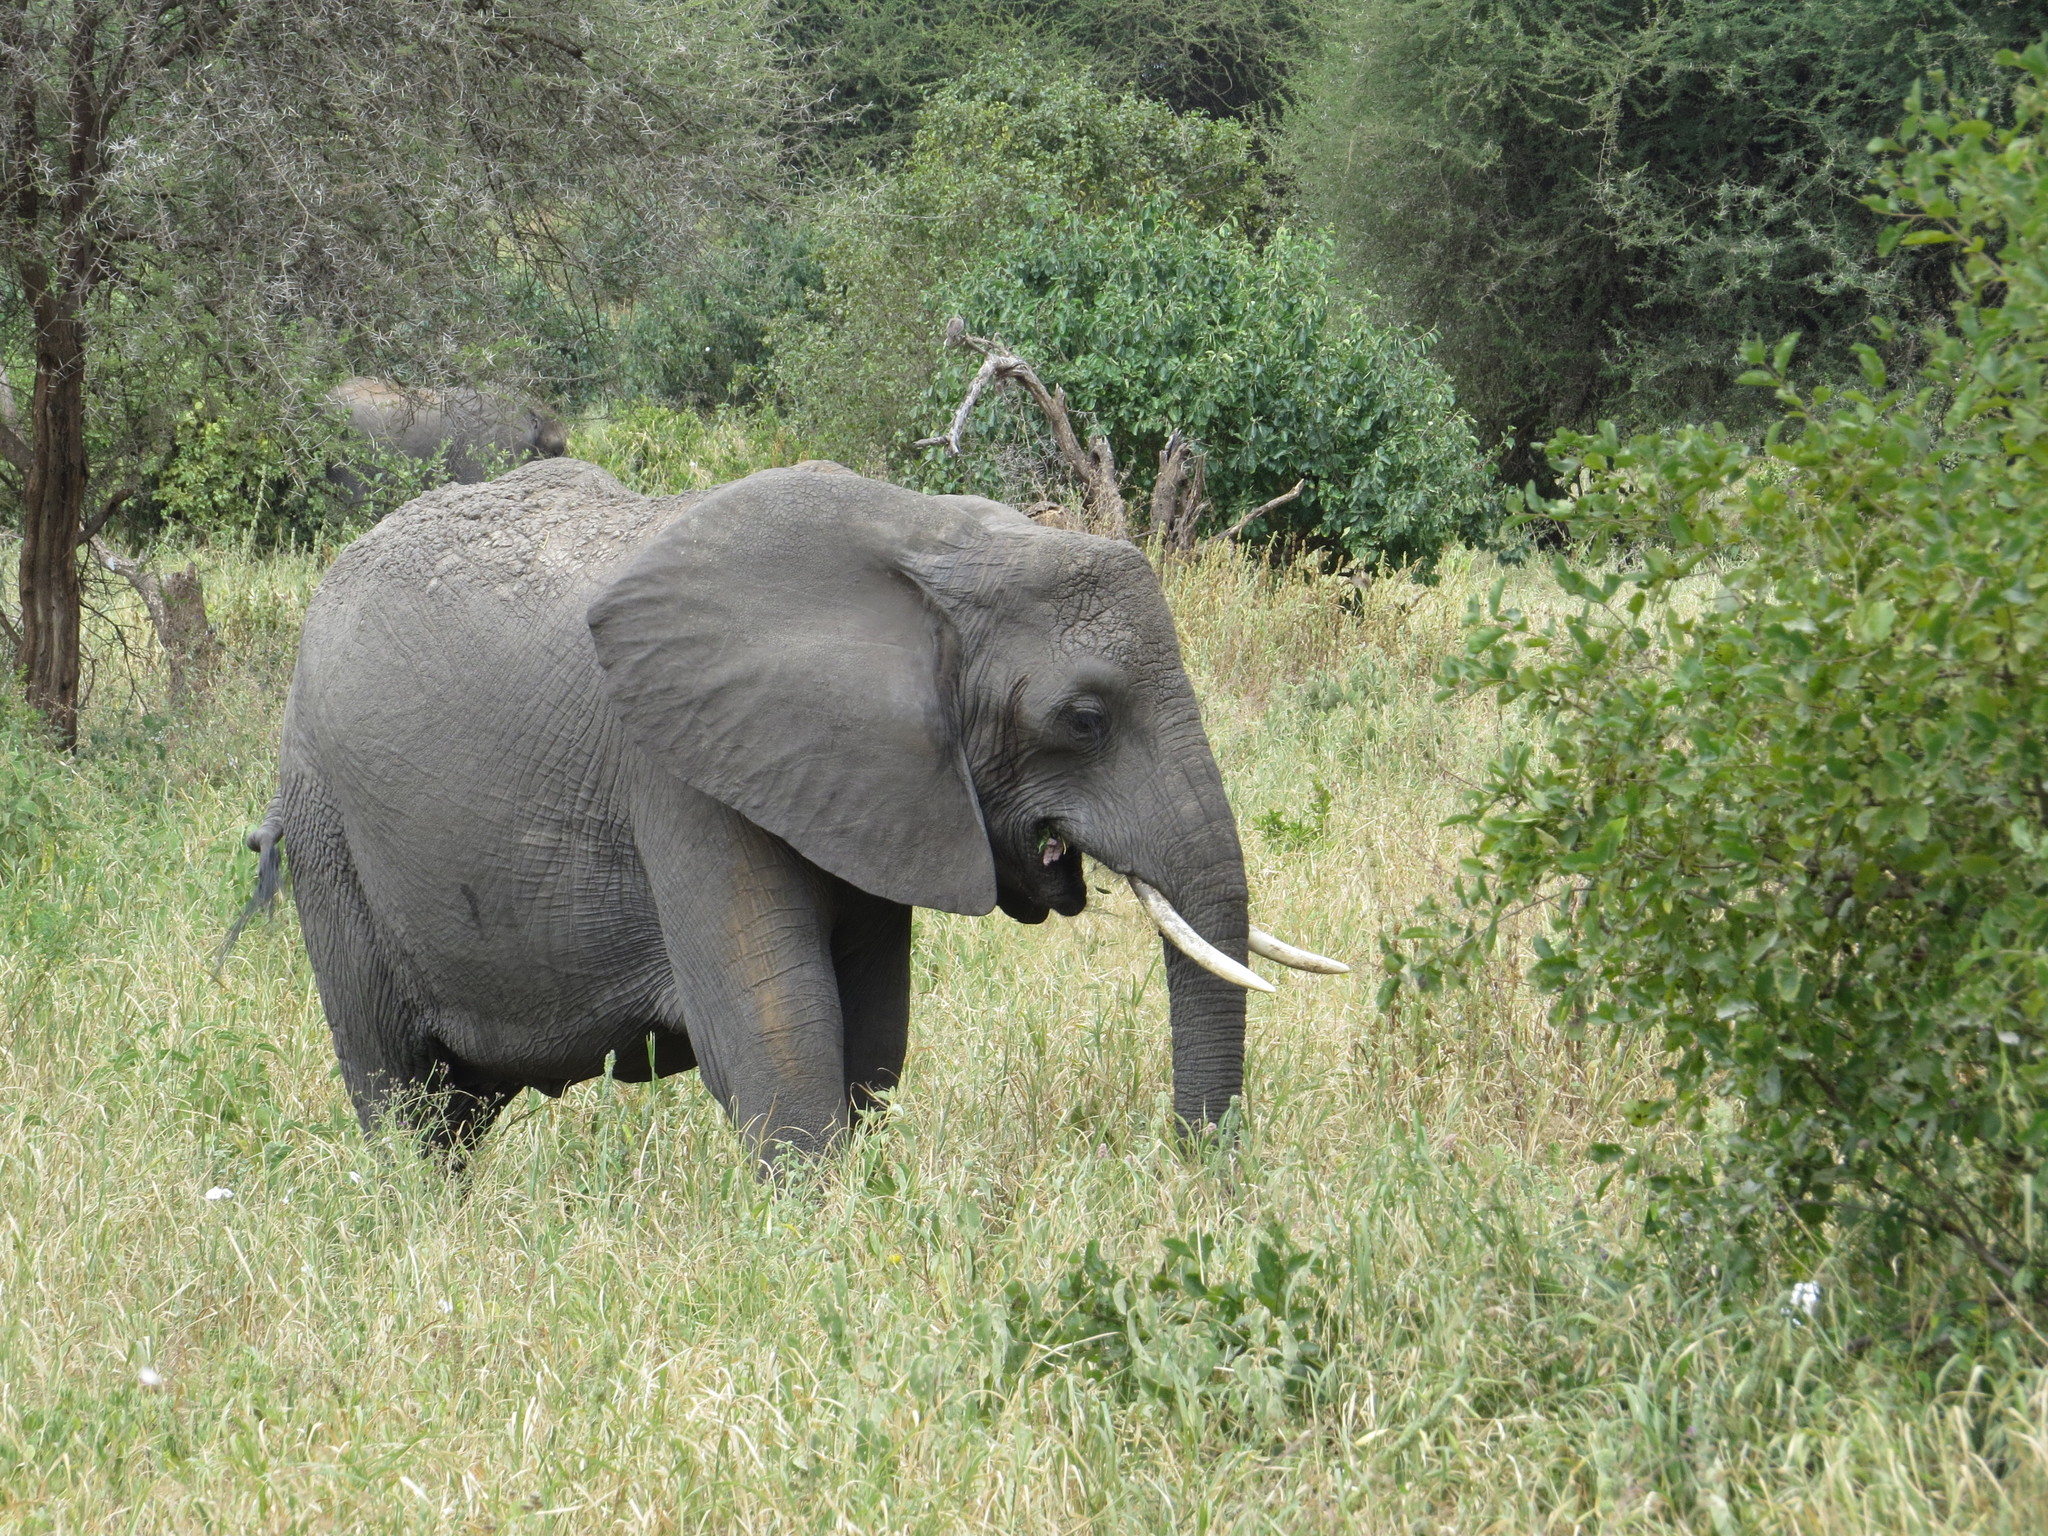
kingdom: Animalia
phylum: Chordata
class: Mammalia
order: Proboscidea
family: Elephantidae
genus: Loxodonta
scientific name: Loxodonta africana
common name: African elephant
